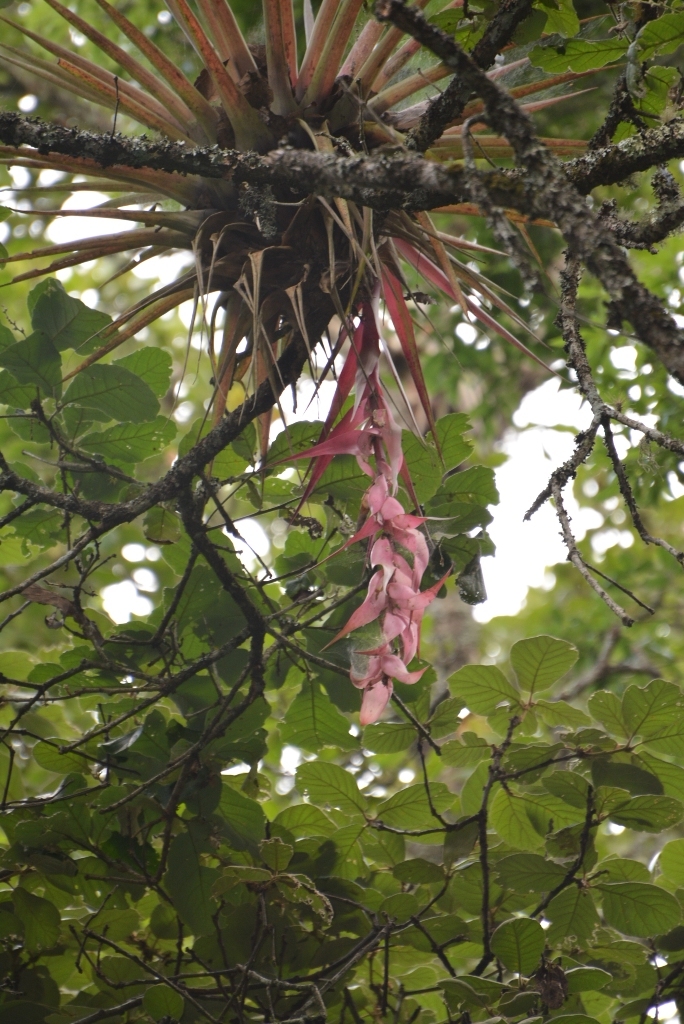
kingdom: Plantae
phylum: Tracheophyta
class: Liliopsida
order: Poales
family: Bromeliaceae
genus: Tillandsia
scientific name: Tillandsia eizii
